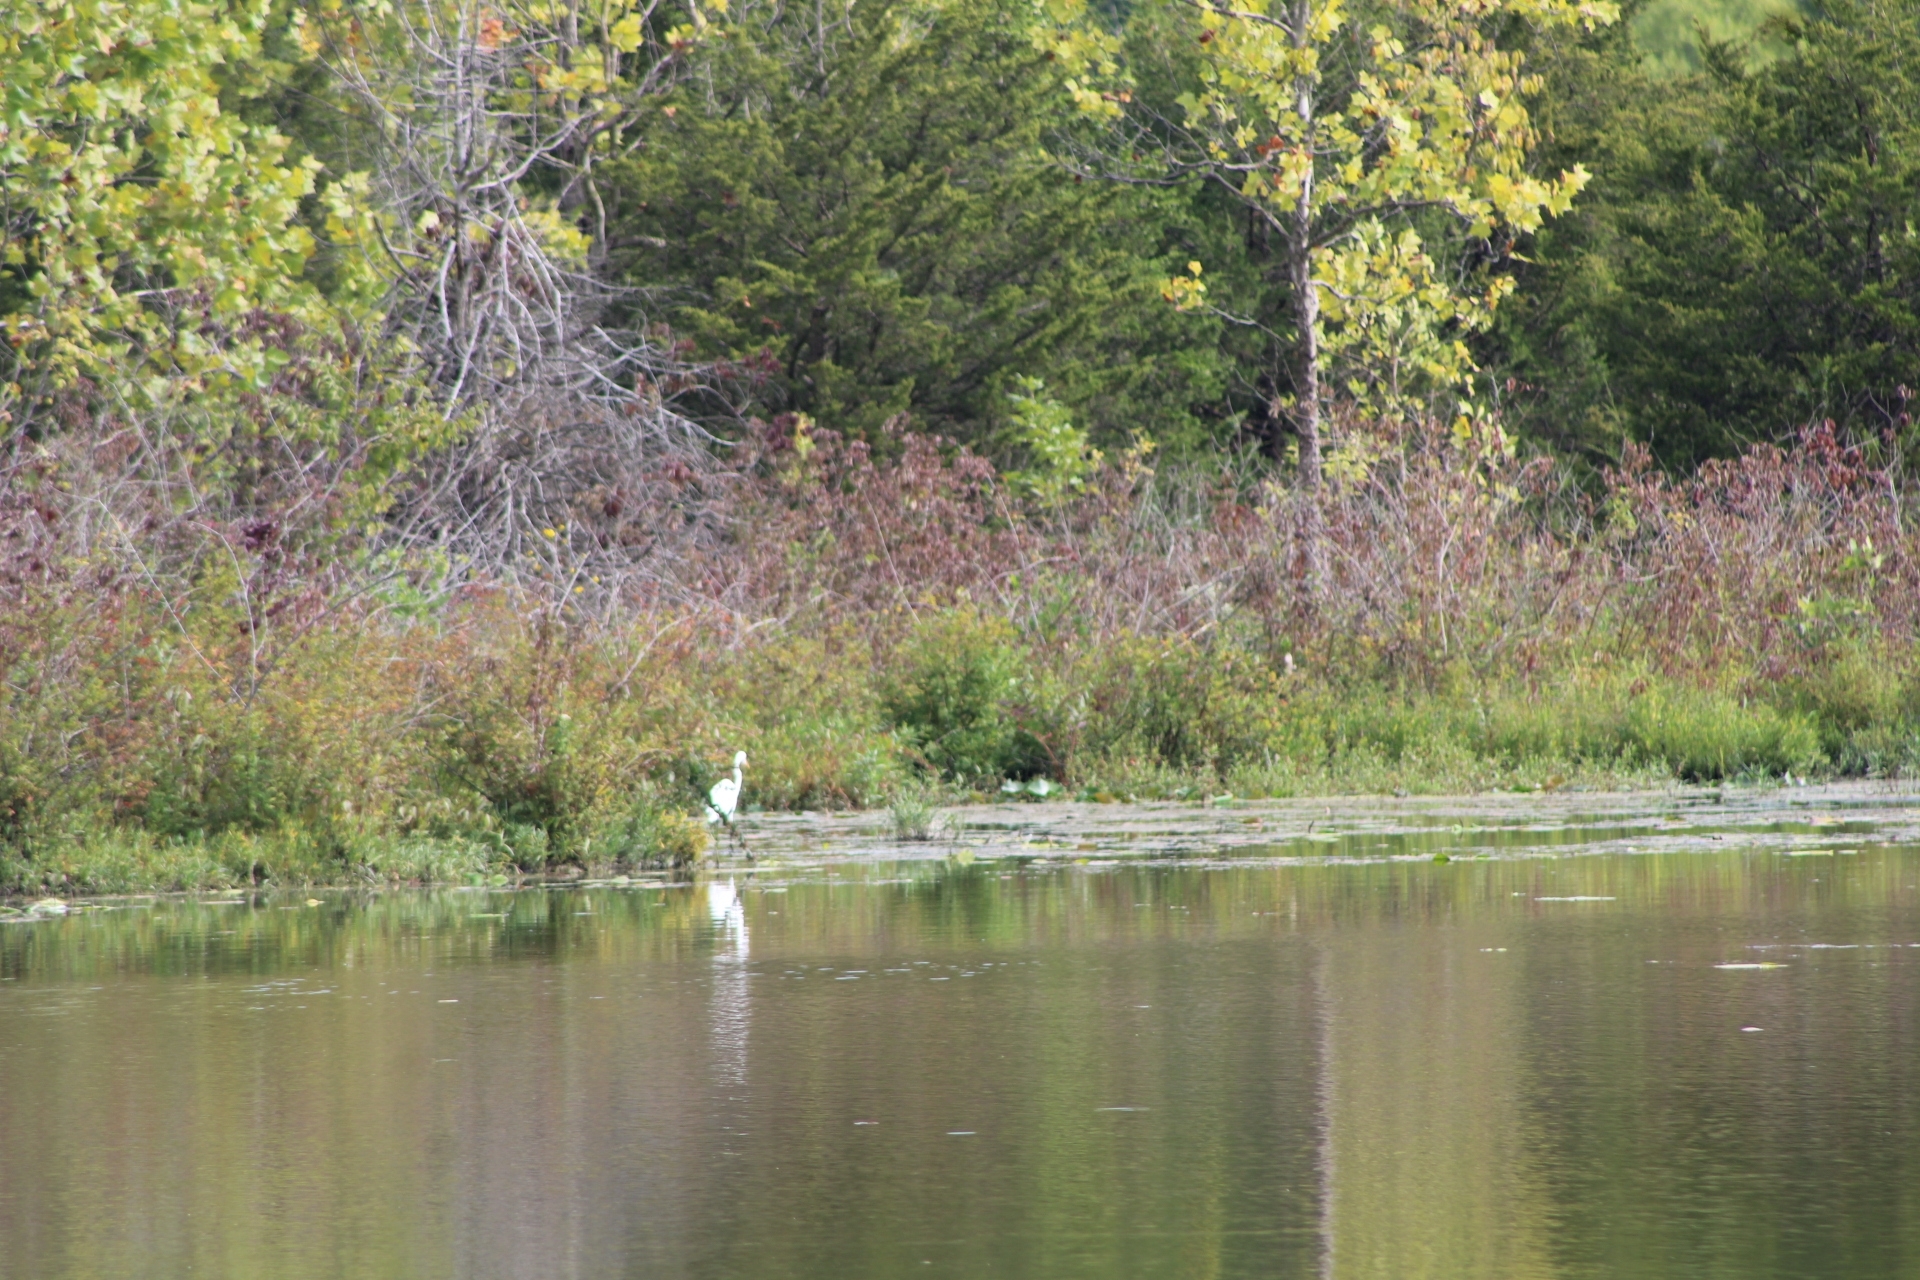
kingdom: Animalia
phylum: Chordata
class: Aves
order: Pelecaniformes
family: Ardeidae
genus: Ardea
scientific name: Ardea alba
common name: Great egret
